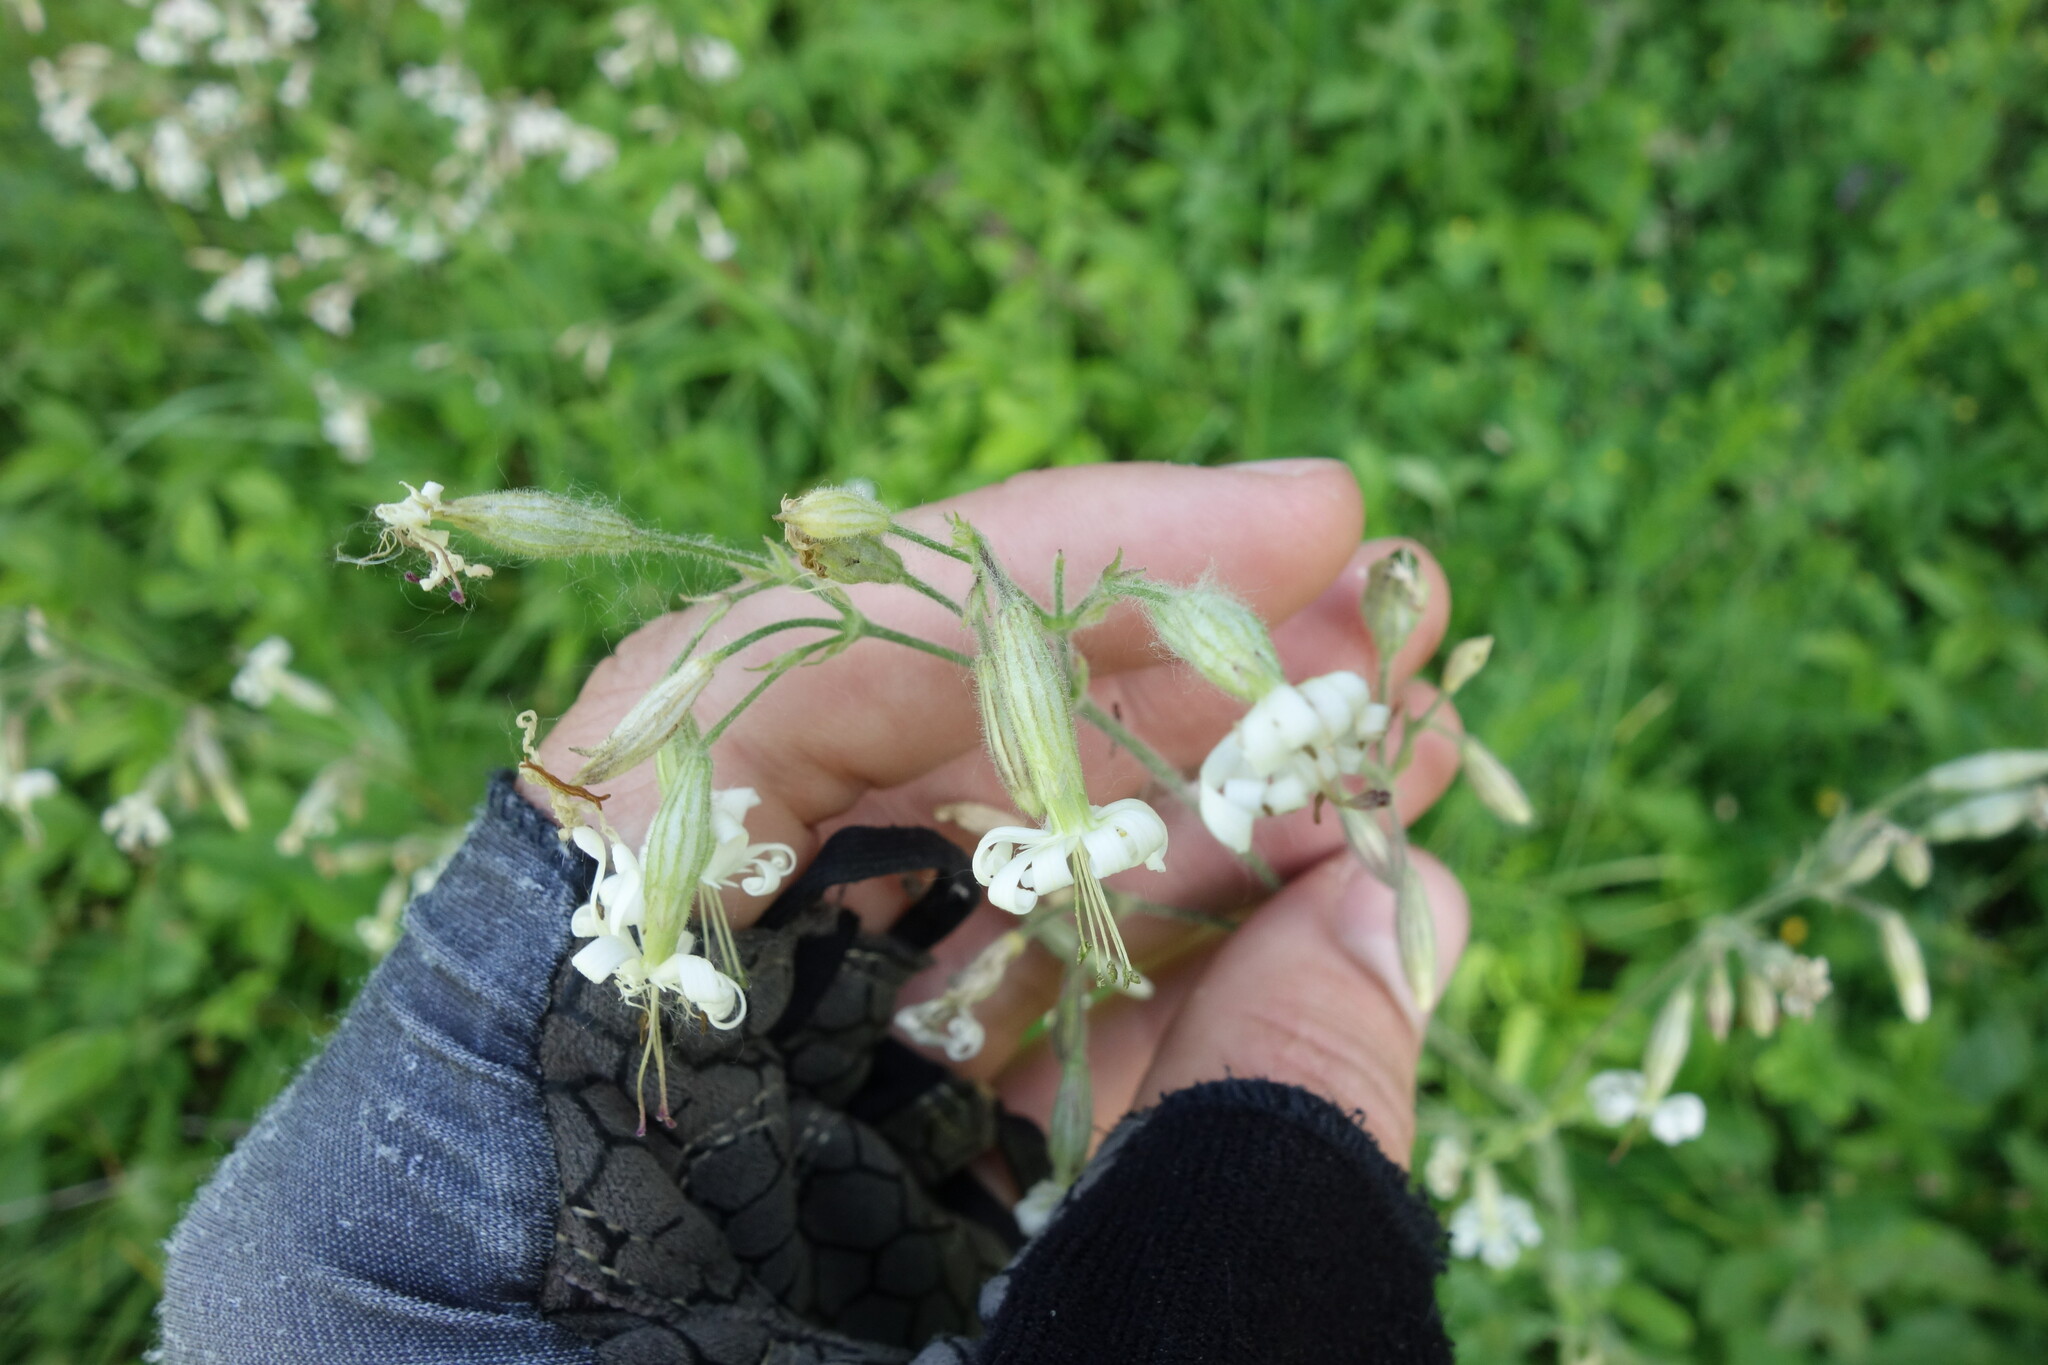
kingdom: Plantae
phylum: Tracheophyta
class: Magnoliopsida
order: Caryophyllales
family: Caryophyllaceae
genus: Silene
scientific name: Silene nutans
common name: Nottingham catchfly
